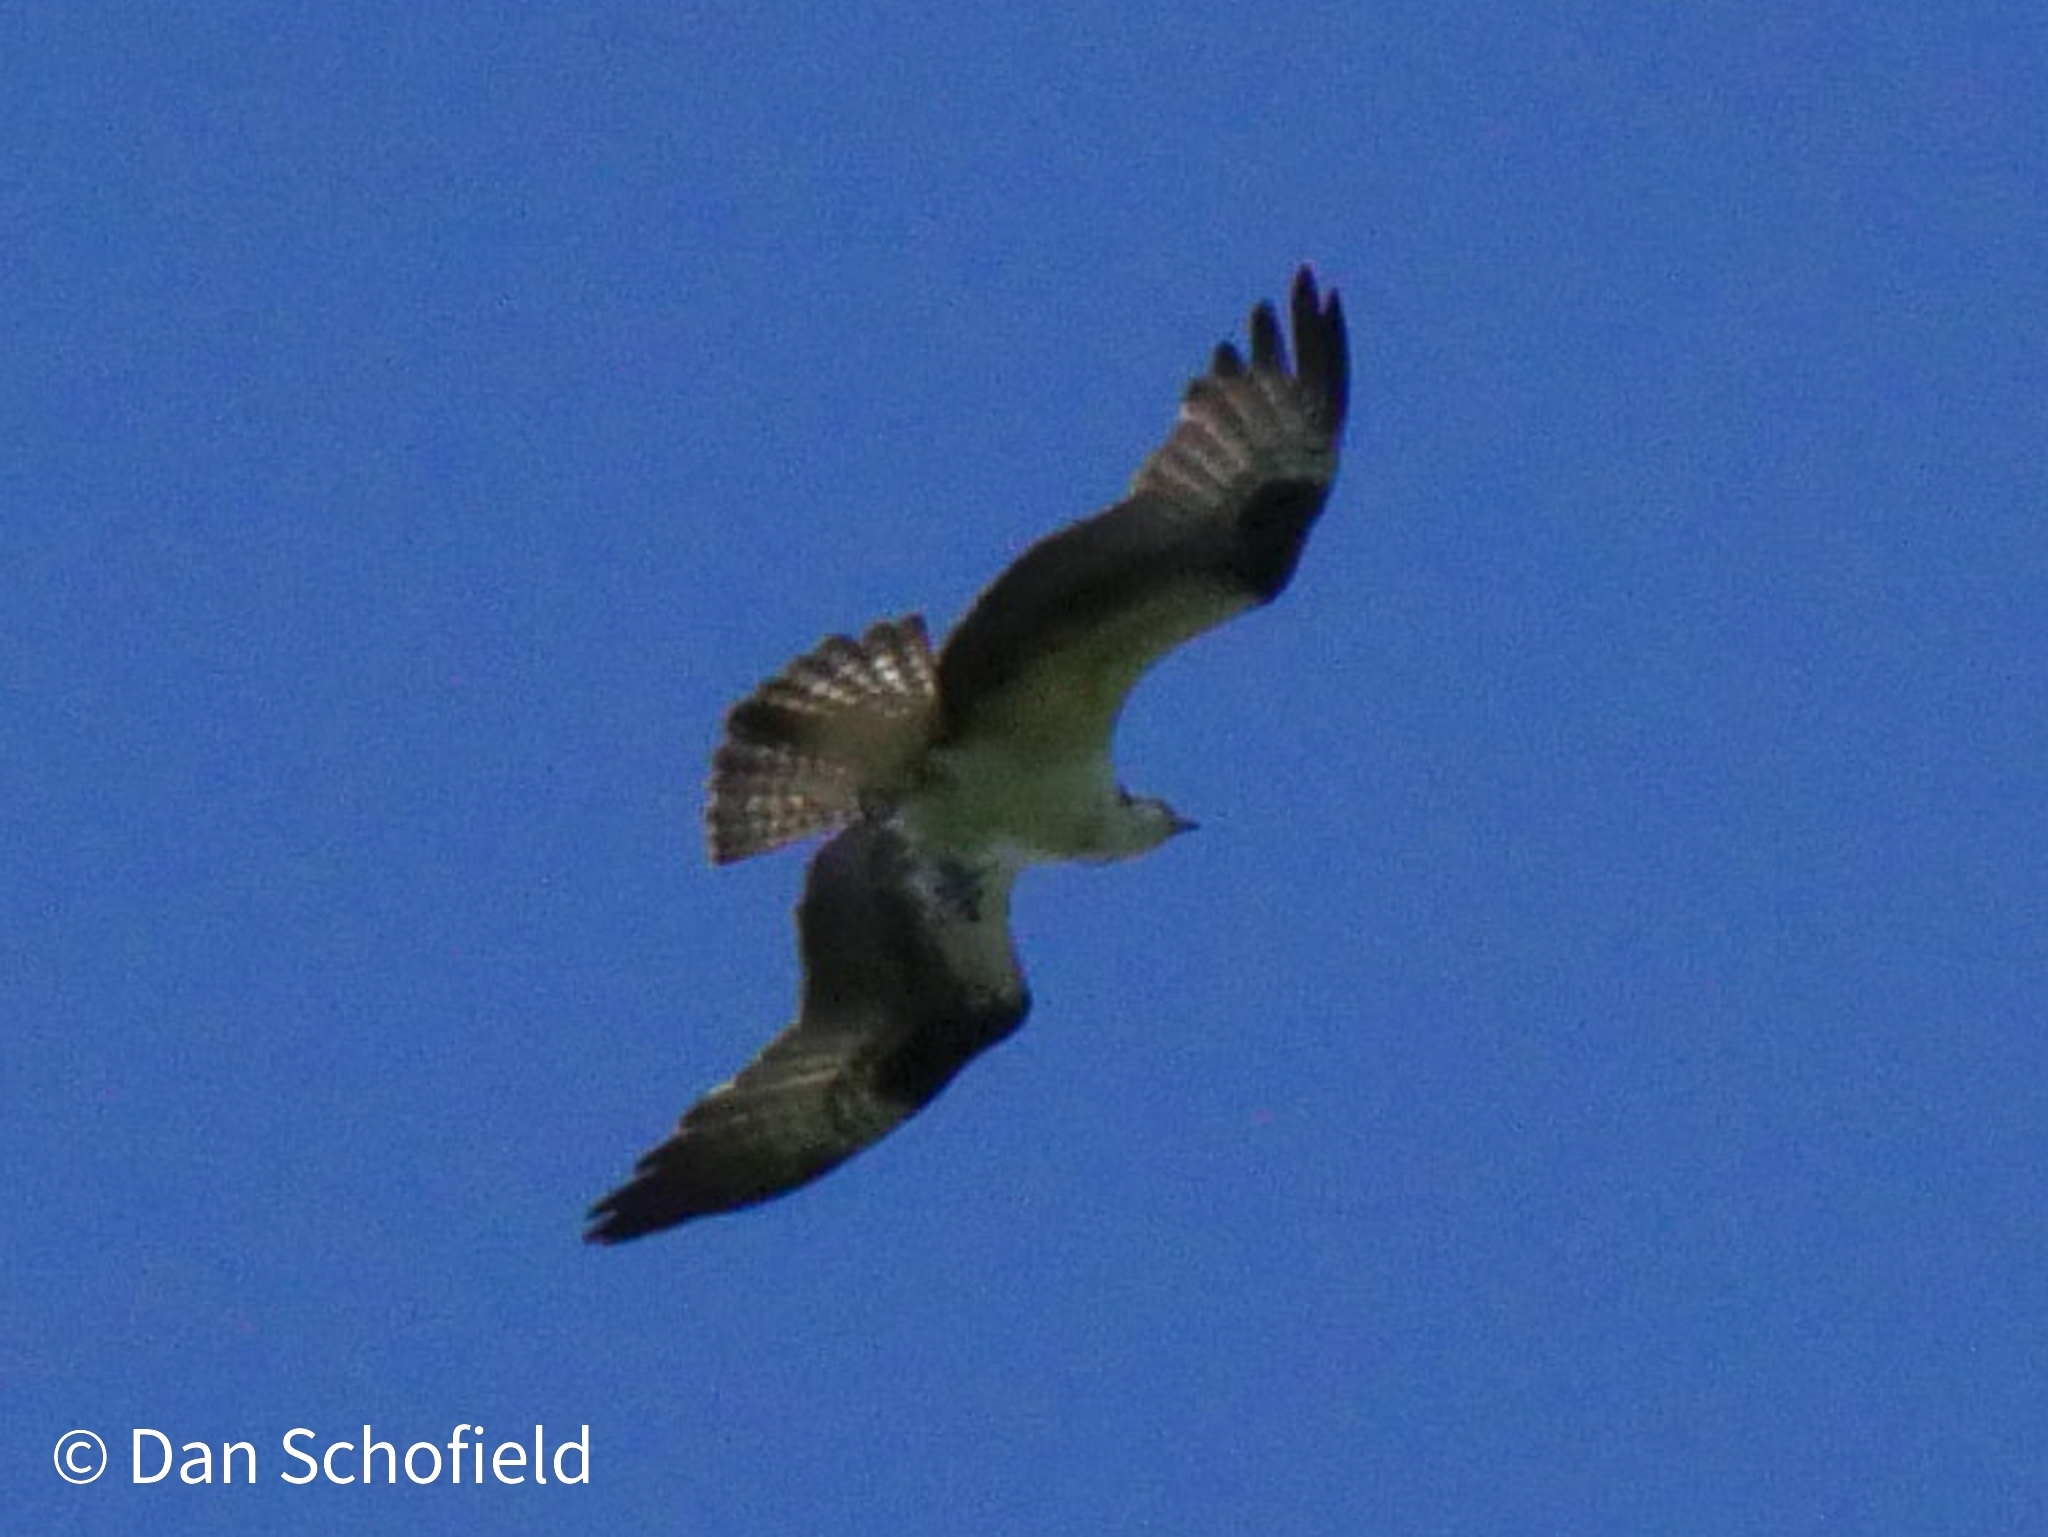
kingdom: Animalia
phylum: Chordata
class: Aves
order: Accipitriformes
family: Pandionidae
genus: Pandion
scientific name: Pandion haliaetus
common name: Osprey
